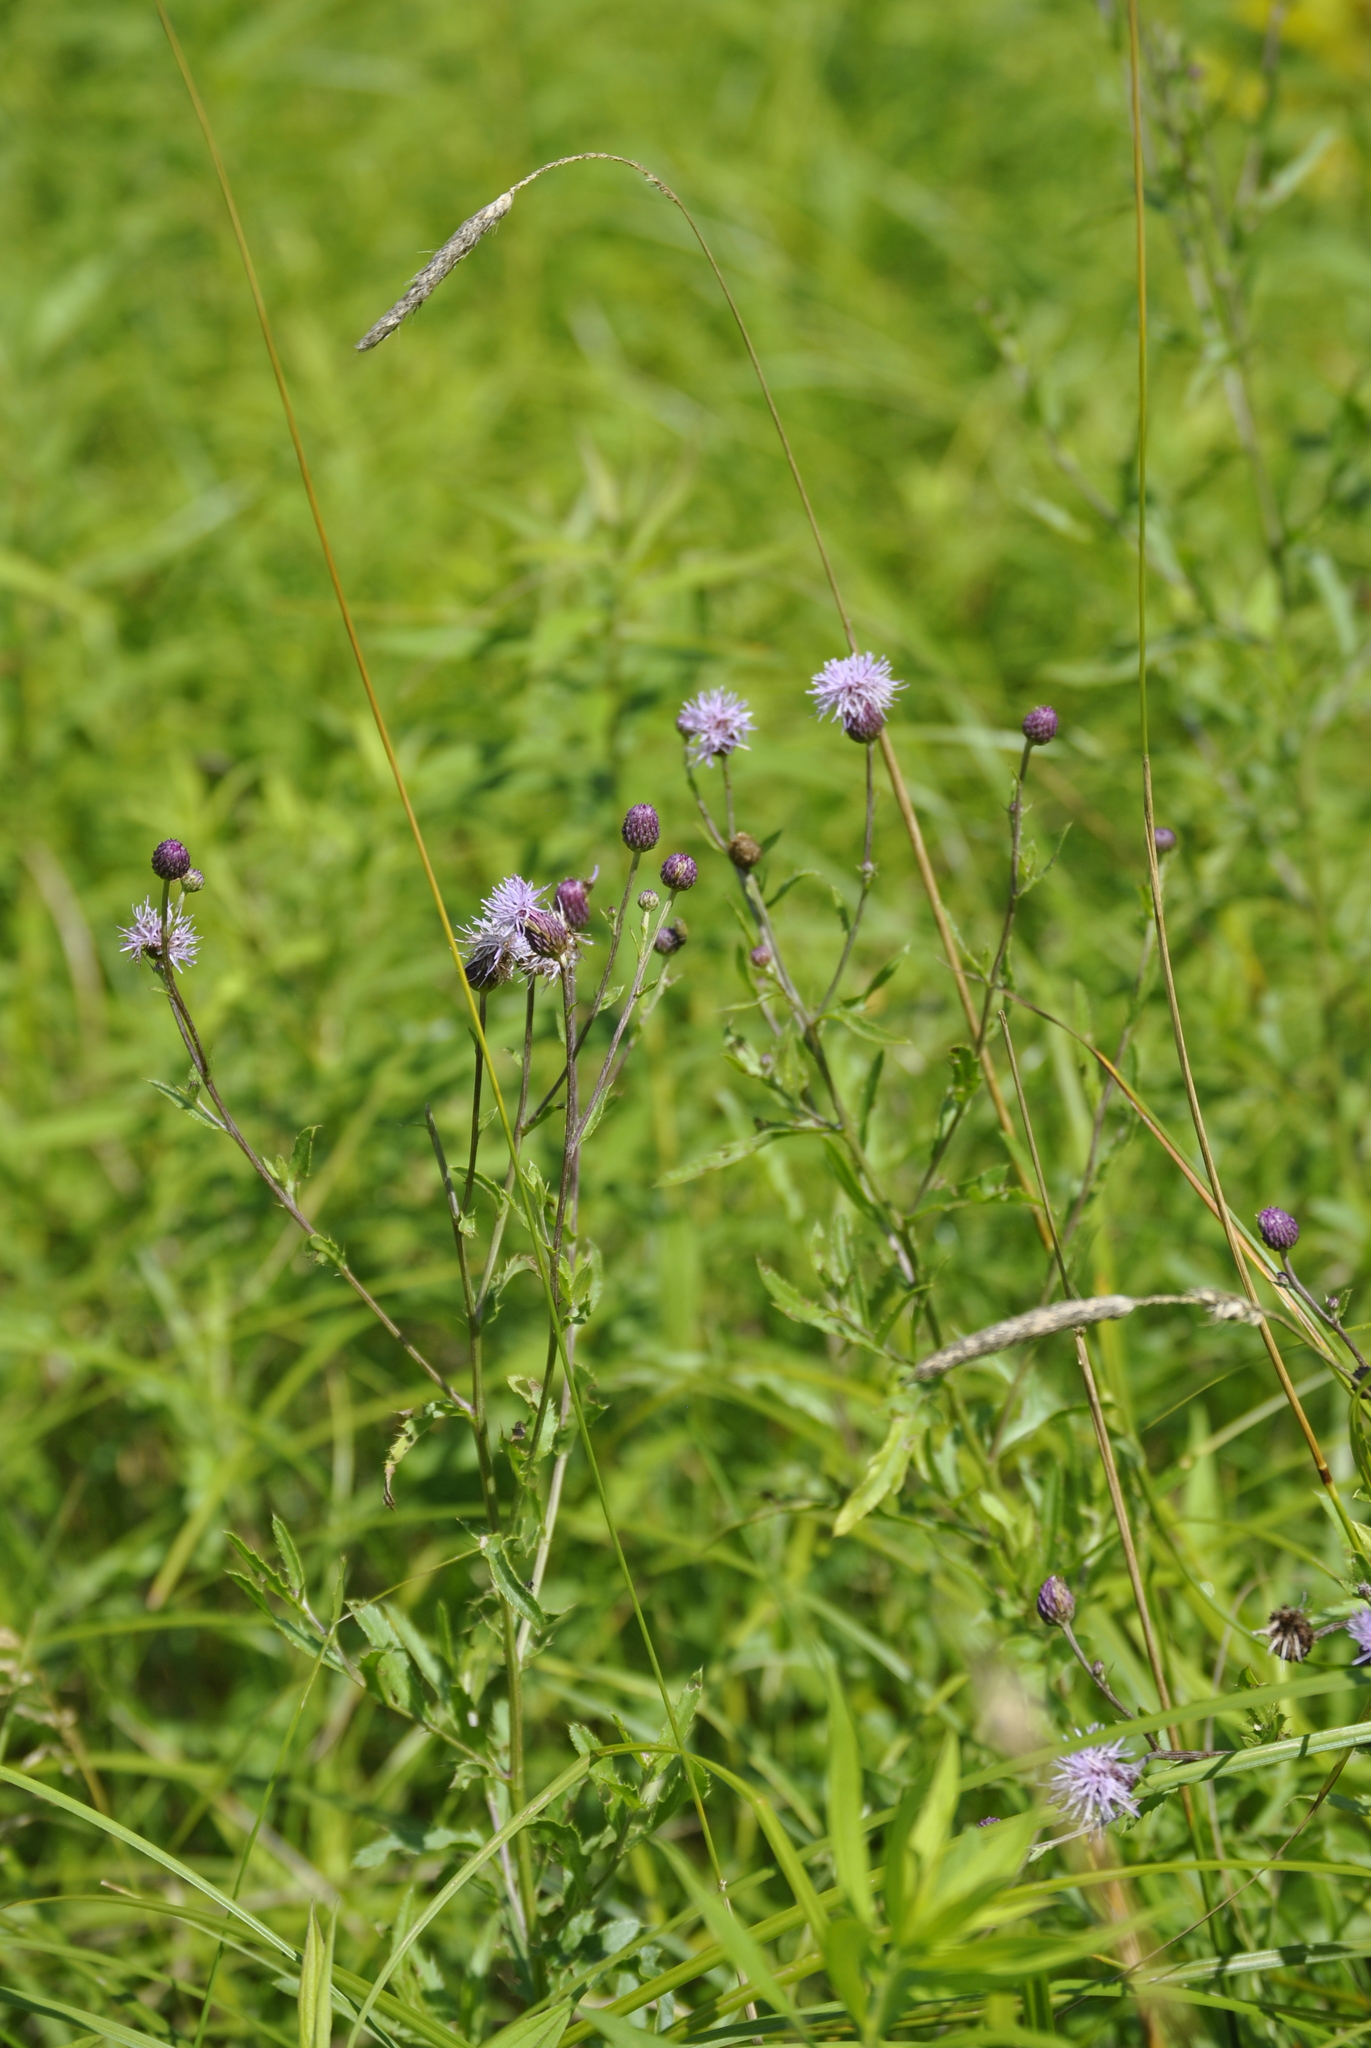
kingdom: Plantae
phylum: Tracheophyta
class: Magnoliopsida
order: Asterales
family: Asteraceae
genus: Cirsium
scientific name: Cirsium arvense
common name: Creeping thistle
